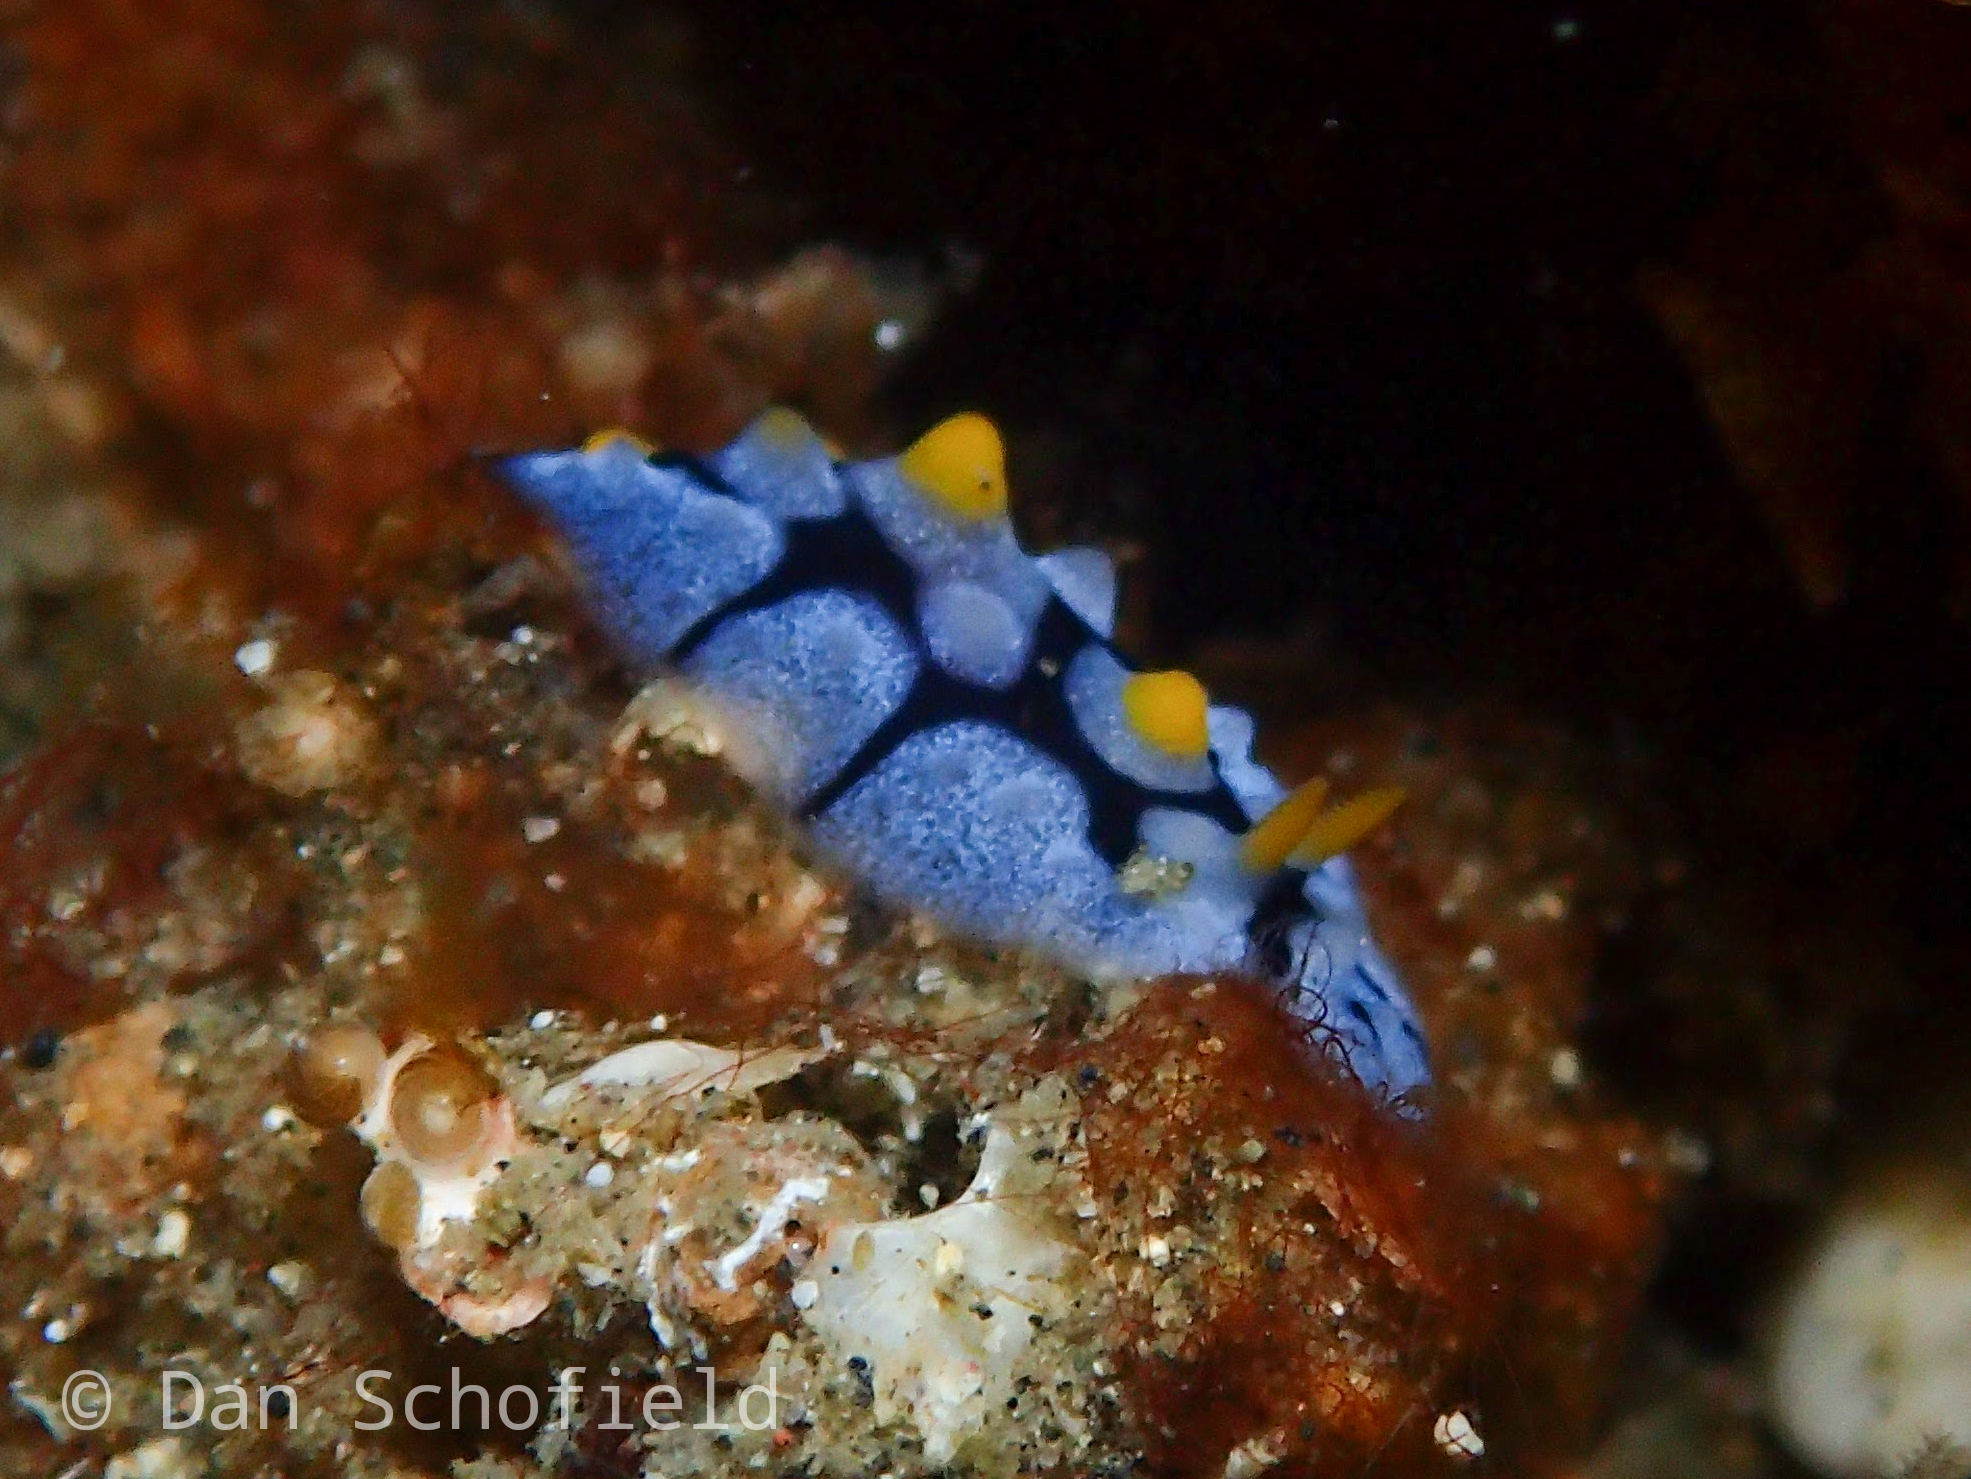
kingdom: Animalia
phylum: Mollusca
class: Gastropoda
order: Nudibranchia
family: Phyllidiidae
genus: Phyllidia
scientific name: Phyllidia picta
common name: Black-rayed phyllidia
